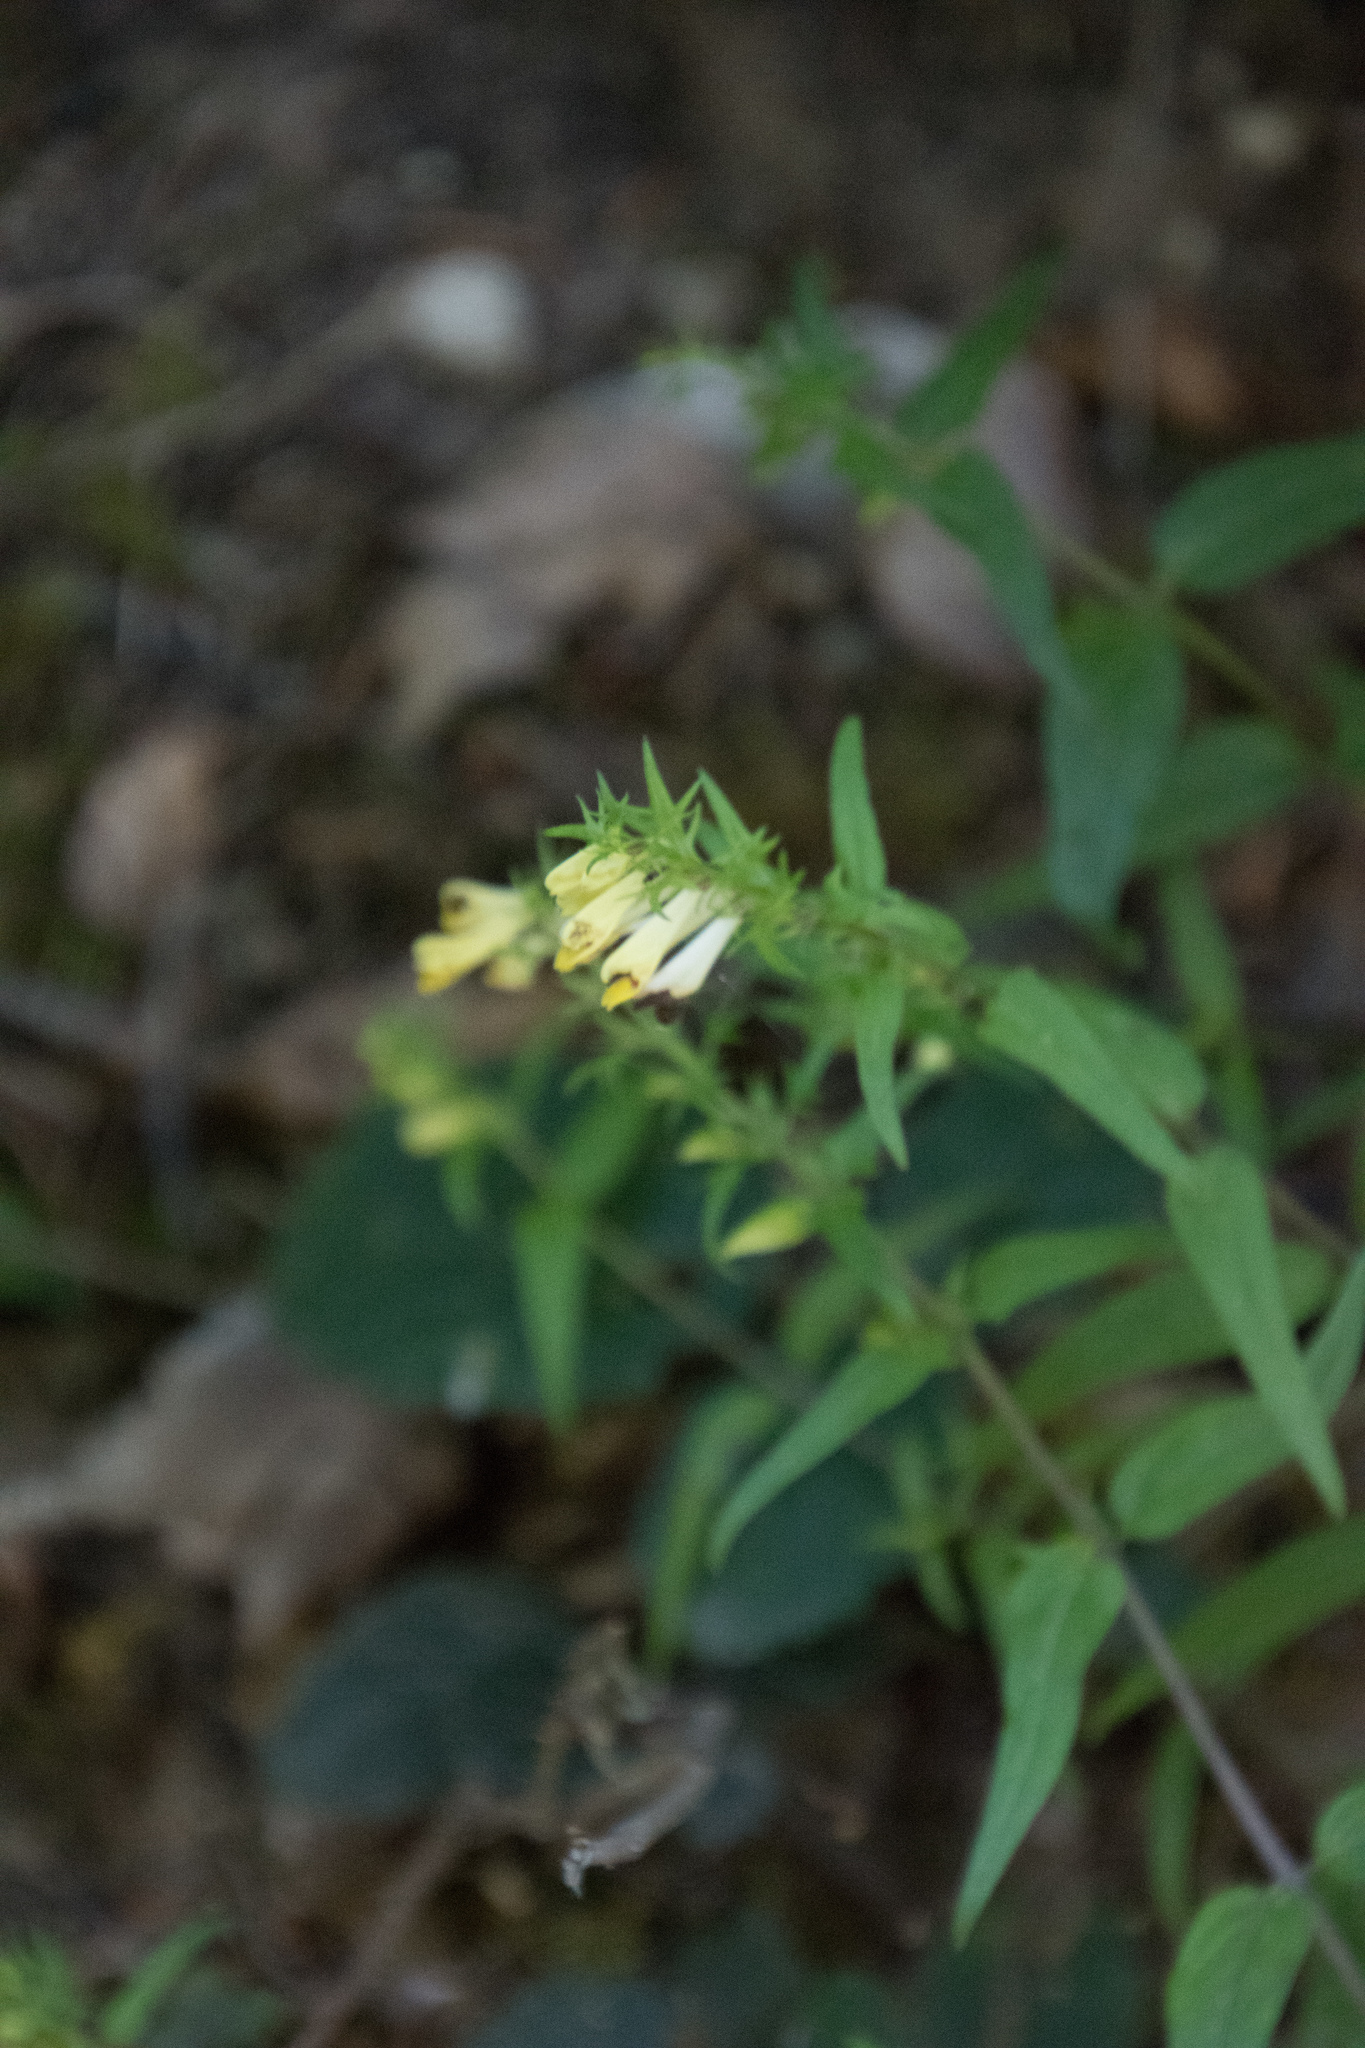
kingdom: Plantae
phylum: Tracheophyta
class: Magnoliopsida
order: Lamiales
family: Orobanchaceae
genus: Melampyrum
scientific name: Melampyrum pratense
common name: Common cow-wheat
